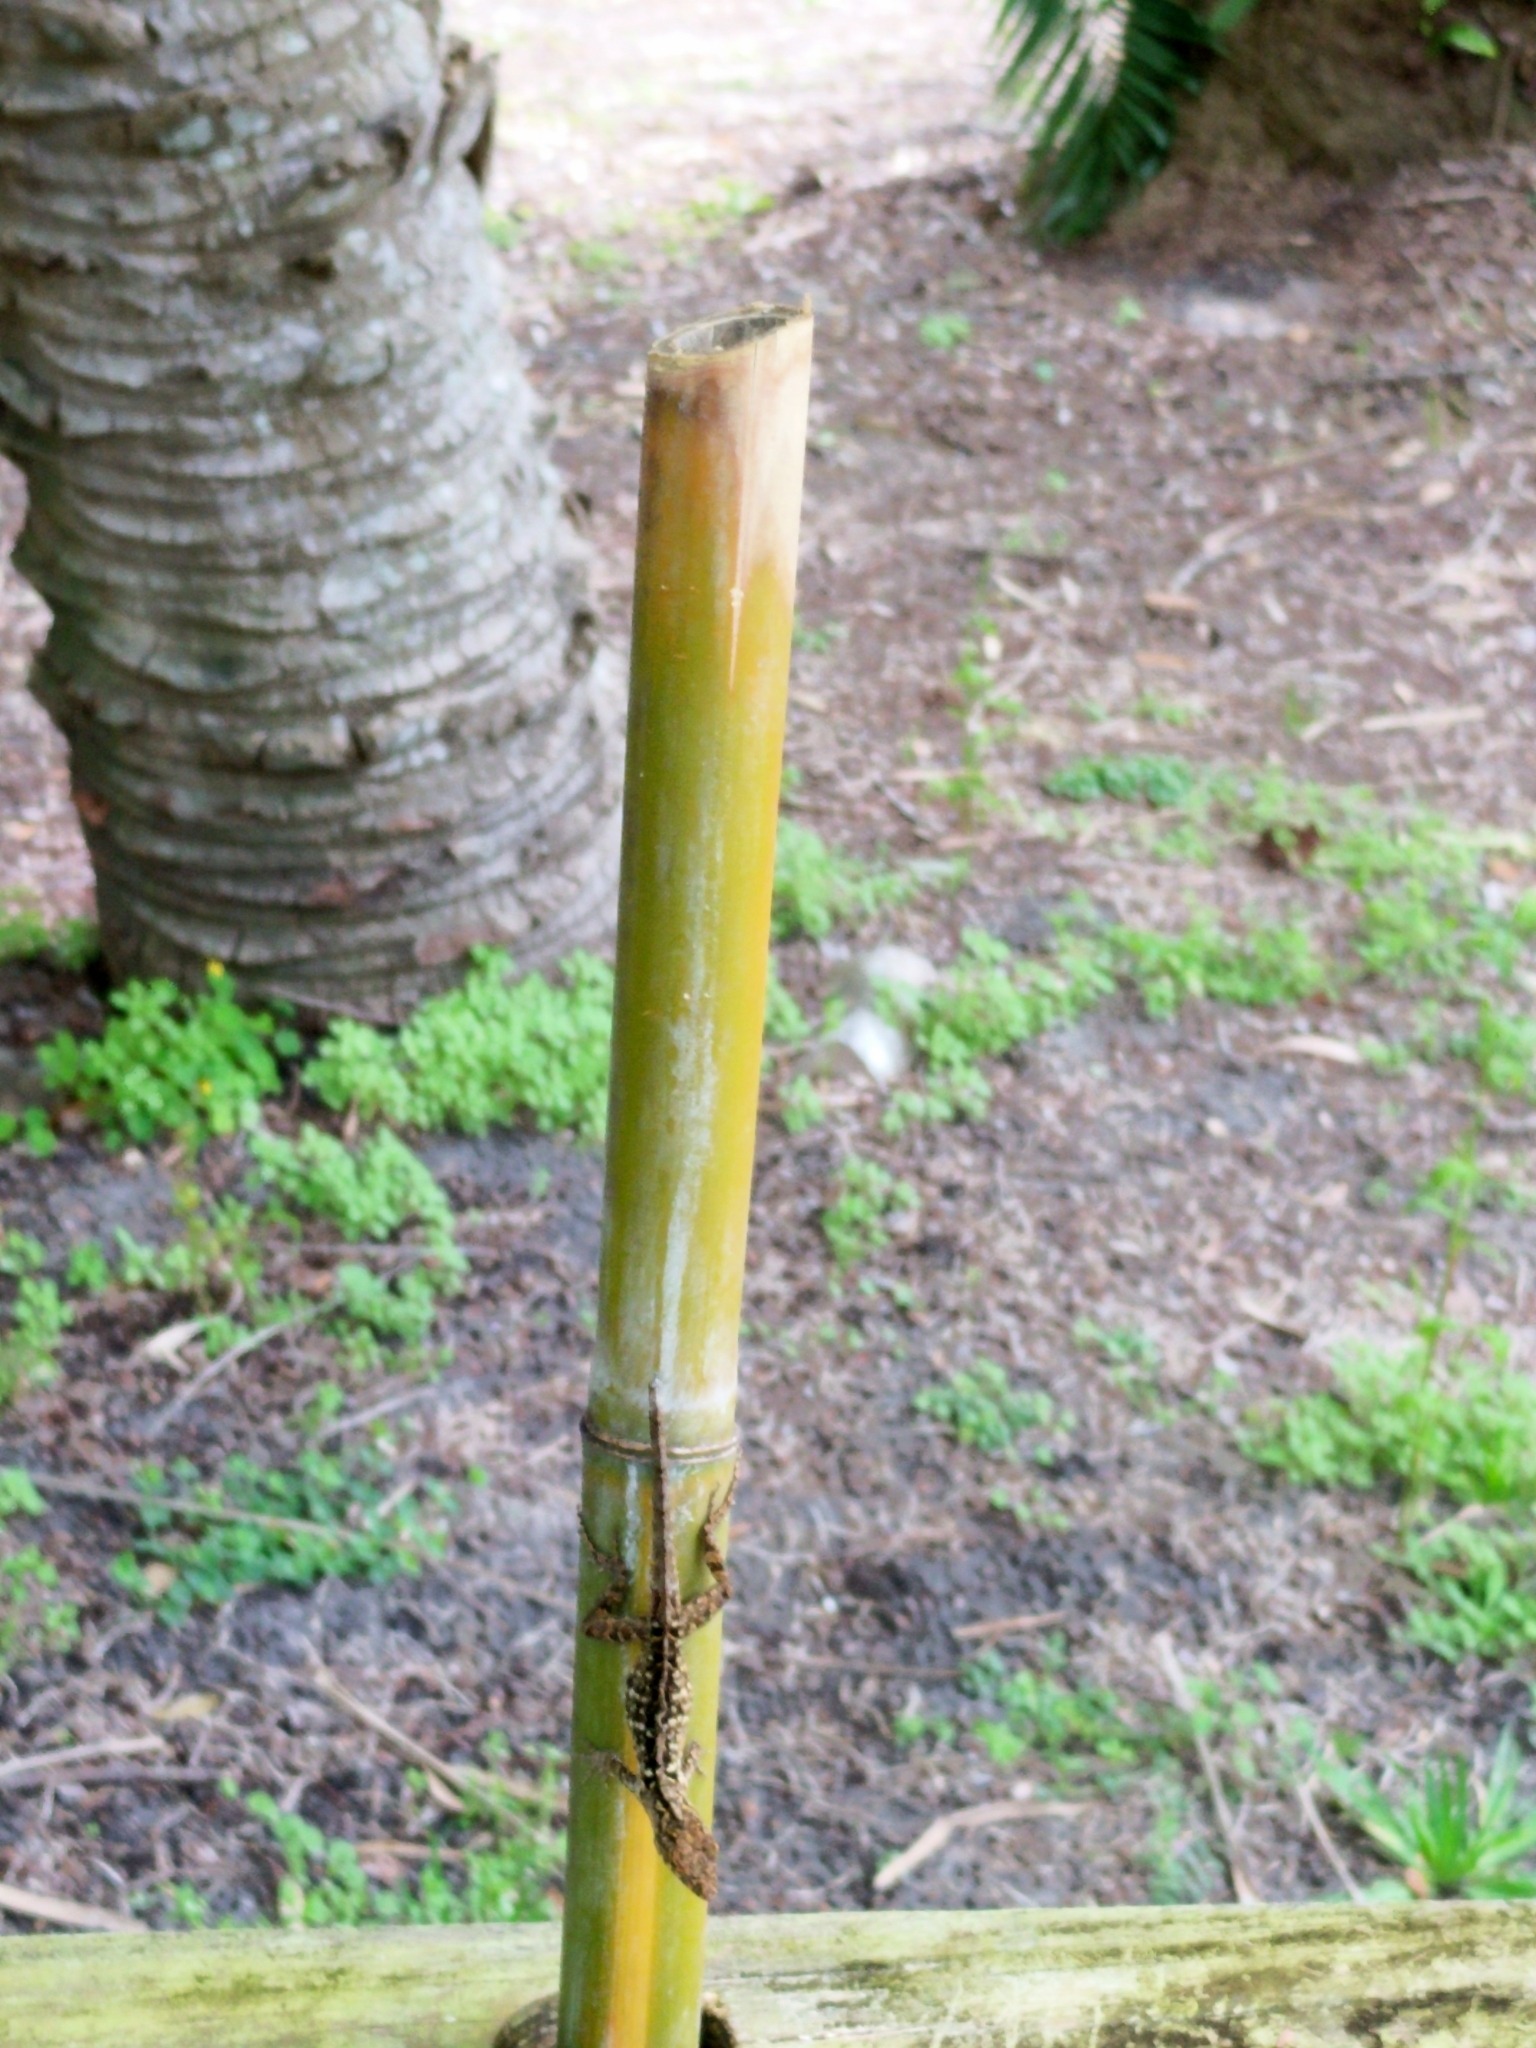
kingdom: Animalia
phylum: Chordata
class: Squamata
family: Dactyloidae
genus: Anolis
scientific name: Anolis sagrei
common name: Brown anole
